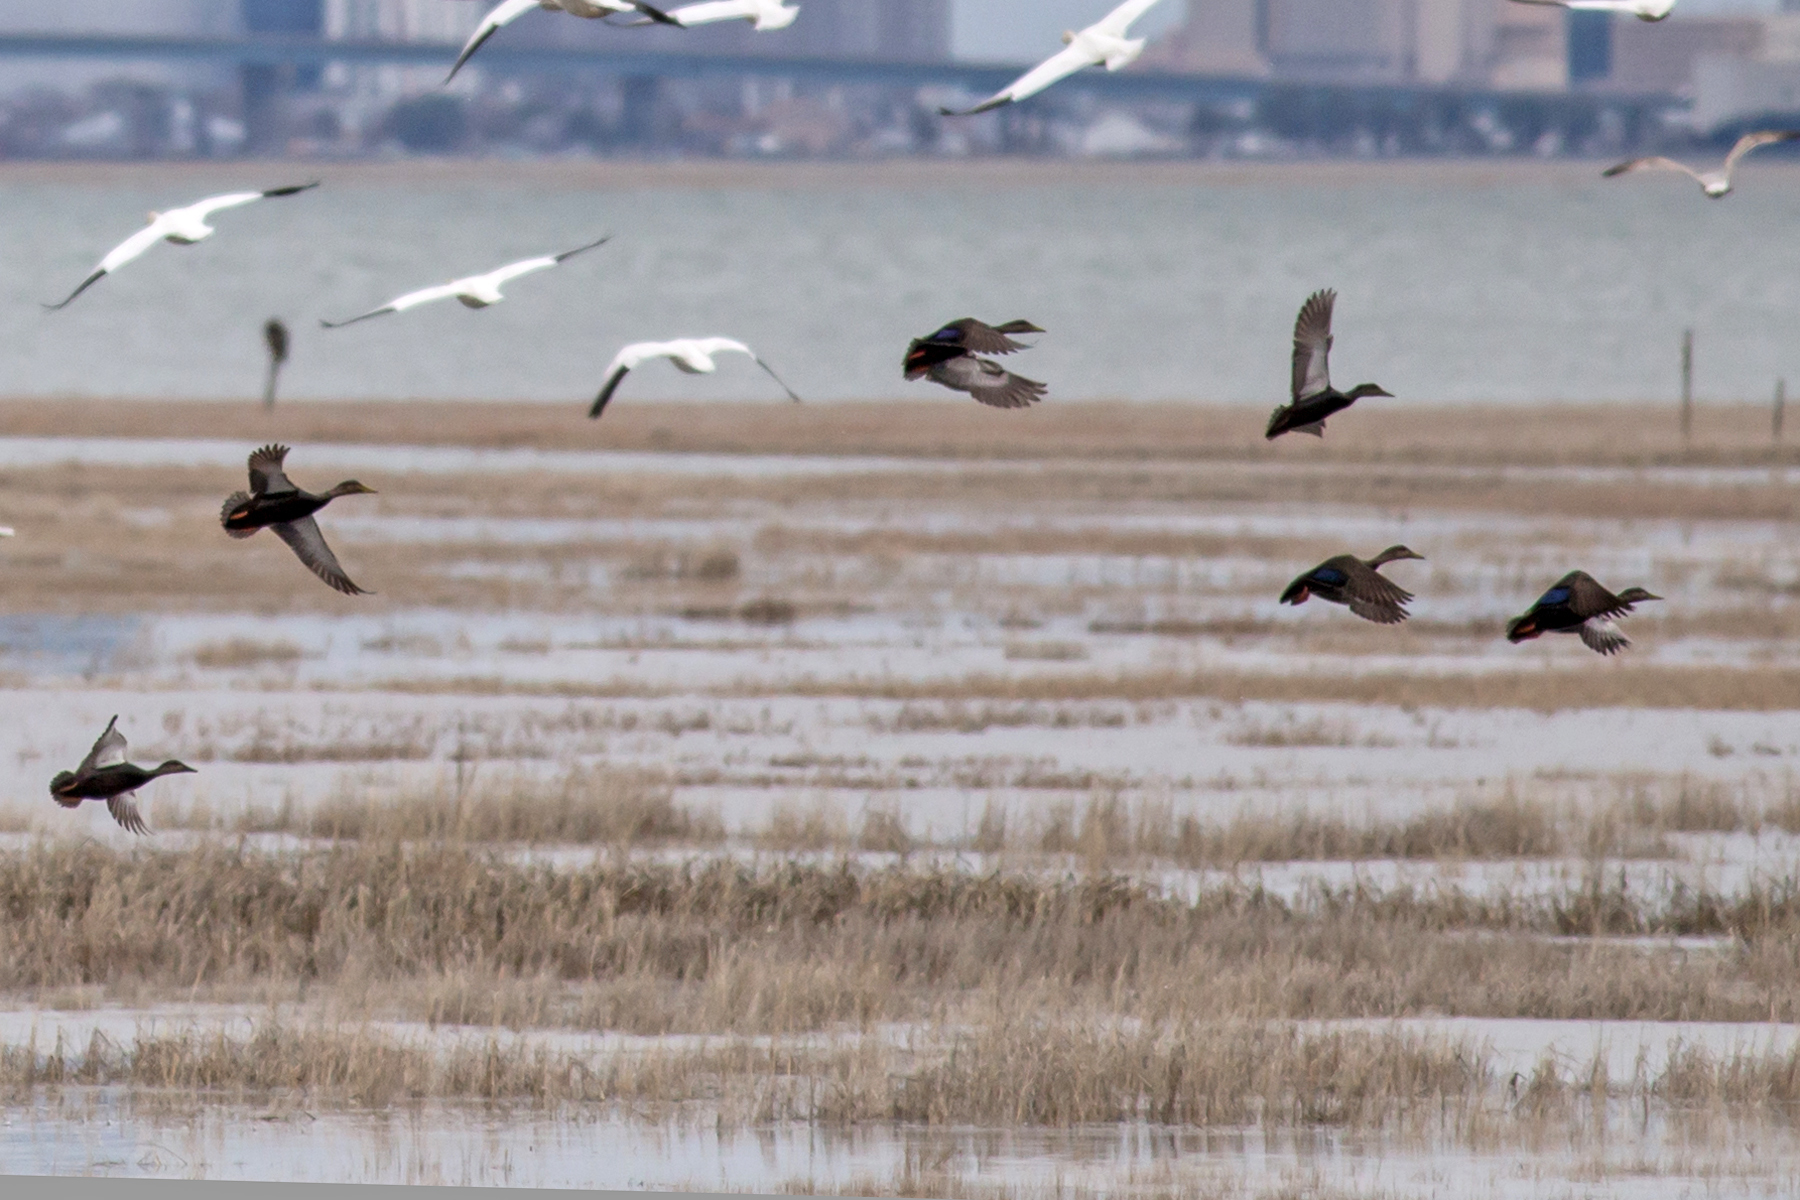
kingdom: Animalia
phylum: Chordata
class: Aves
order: Anseriformes
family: Anatidae
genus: Anas
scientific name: Anas rubripes
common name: American black duck
